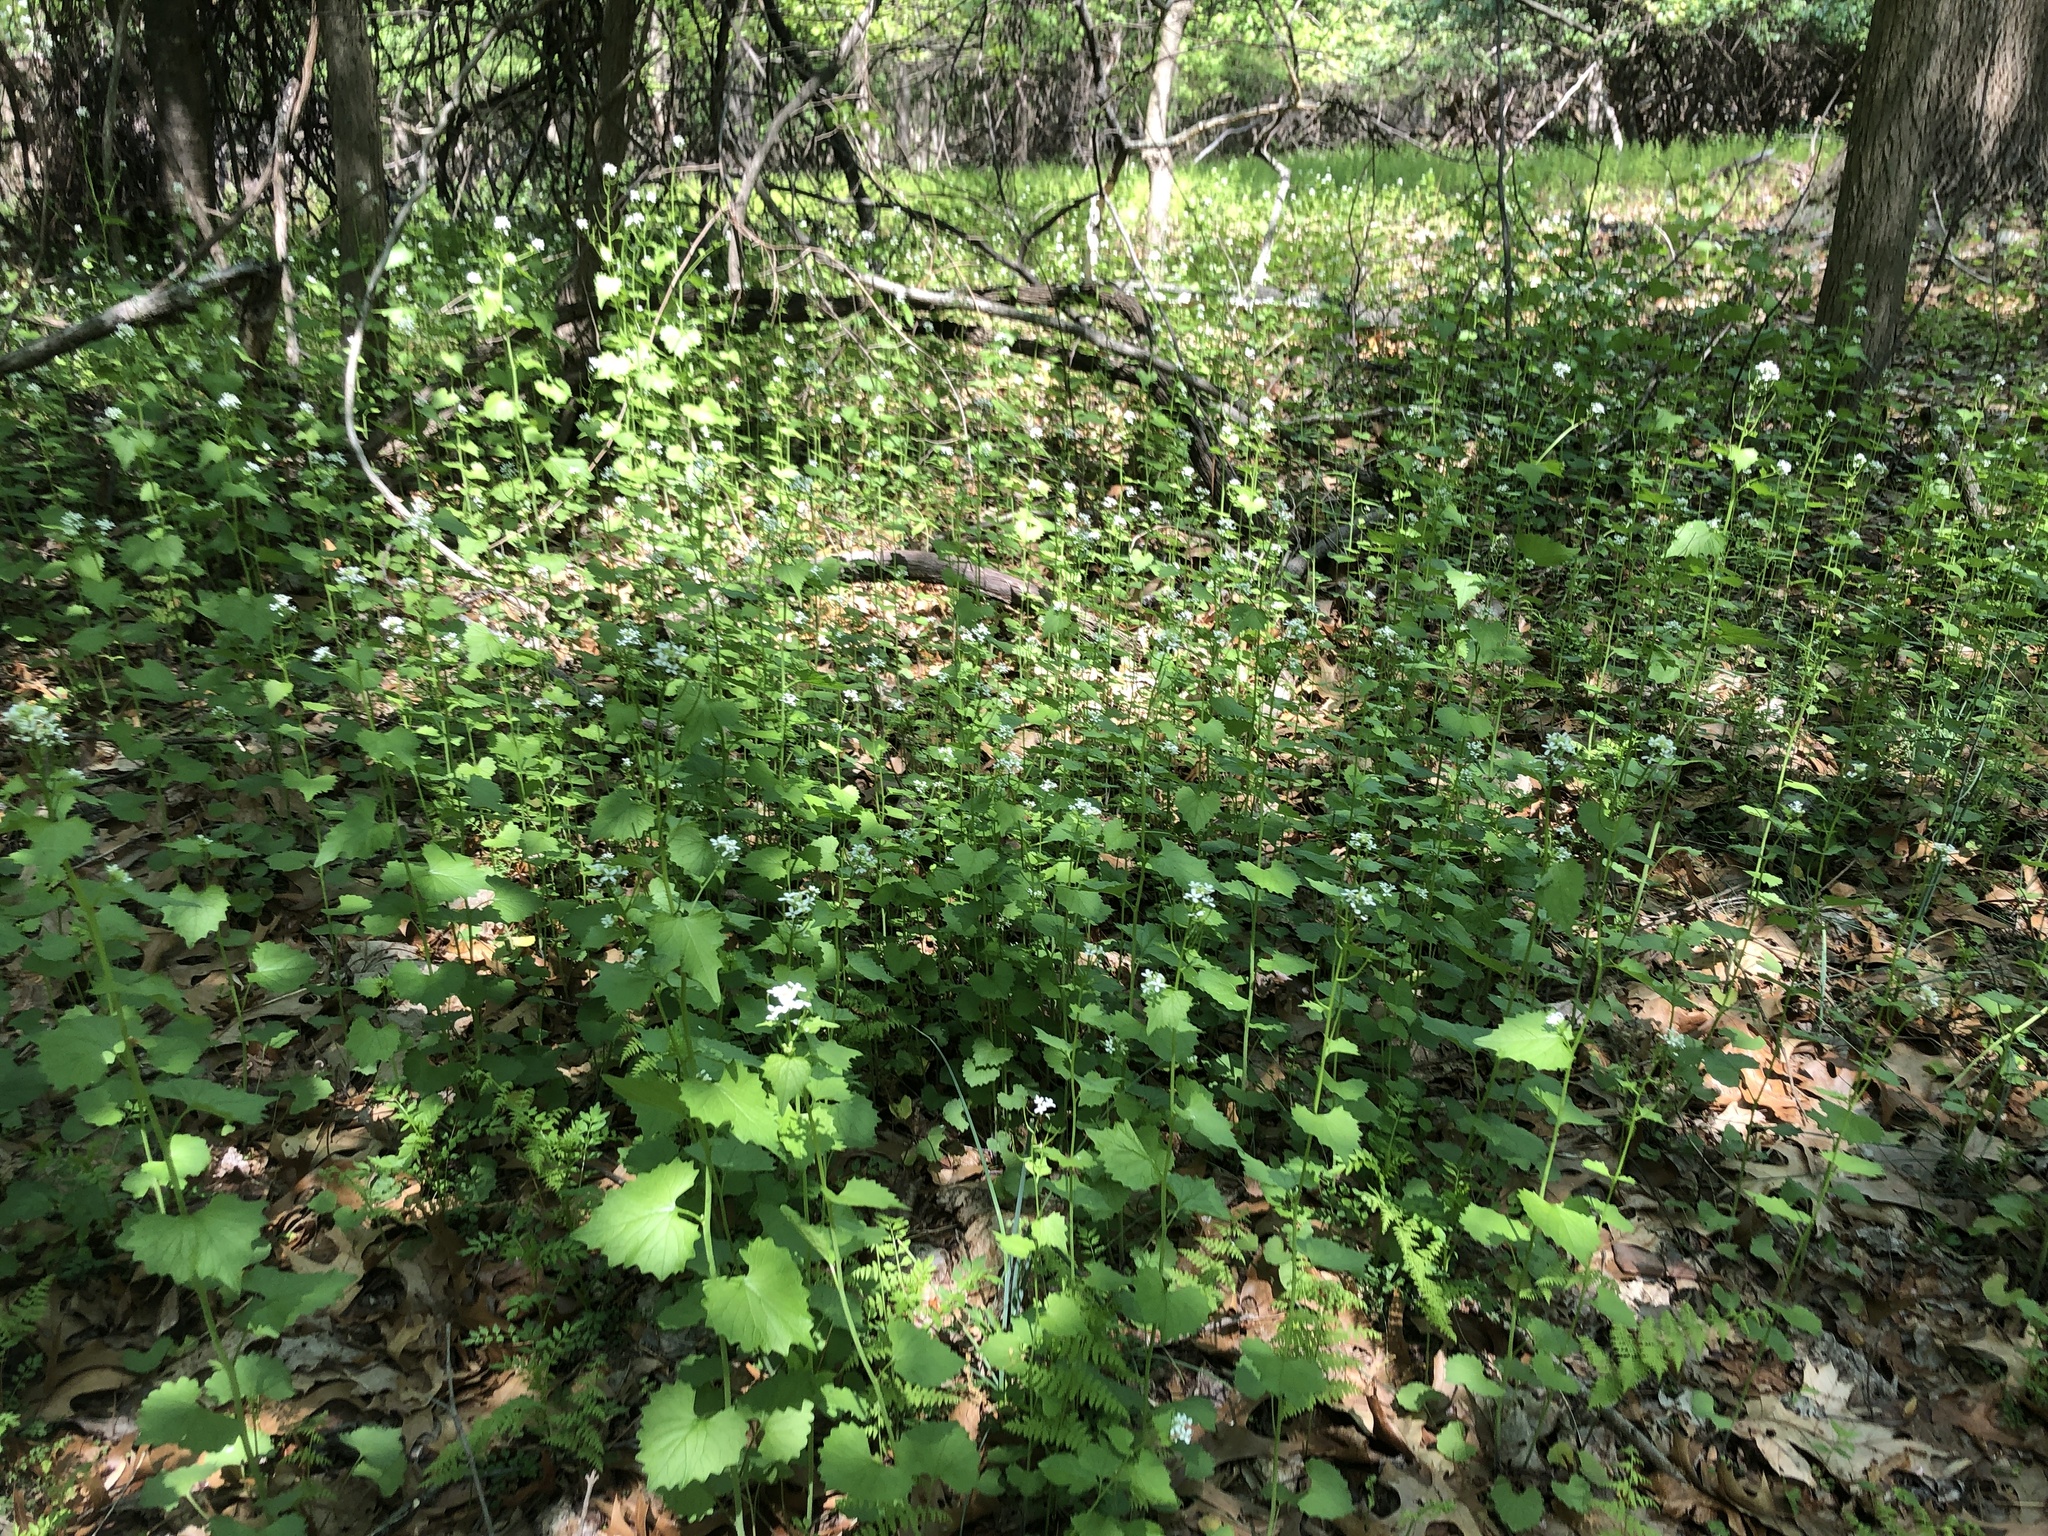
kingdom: Plantae
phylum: Tracheophyta
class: Magnoliopsida
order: Brassicales
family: Brassicaceae
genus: Alliaria
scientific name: Alliaria petiolata
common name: Garlic mustard
